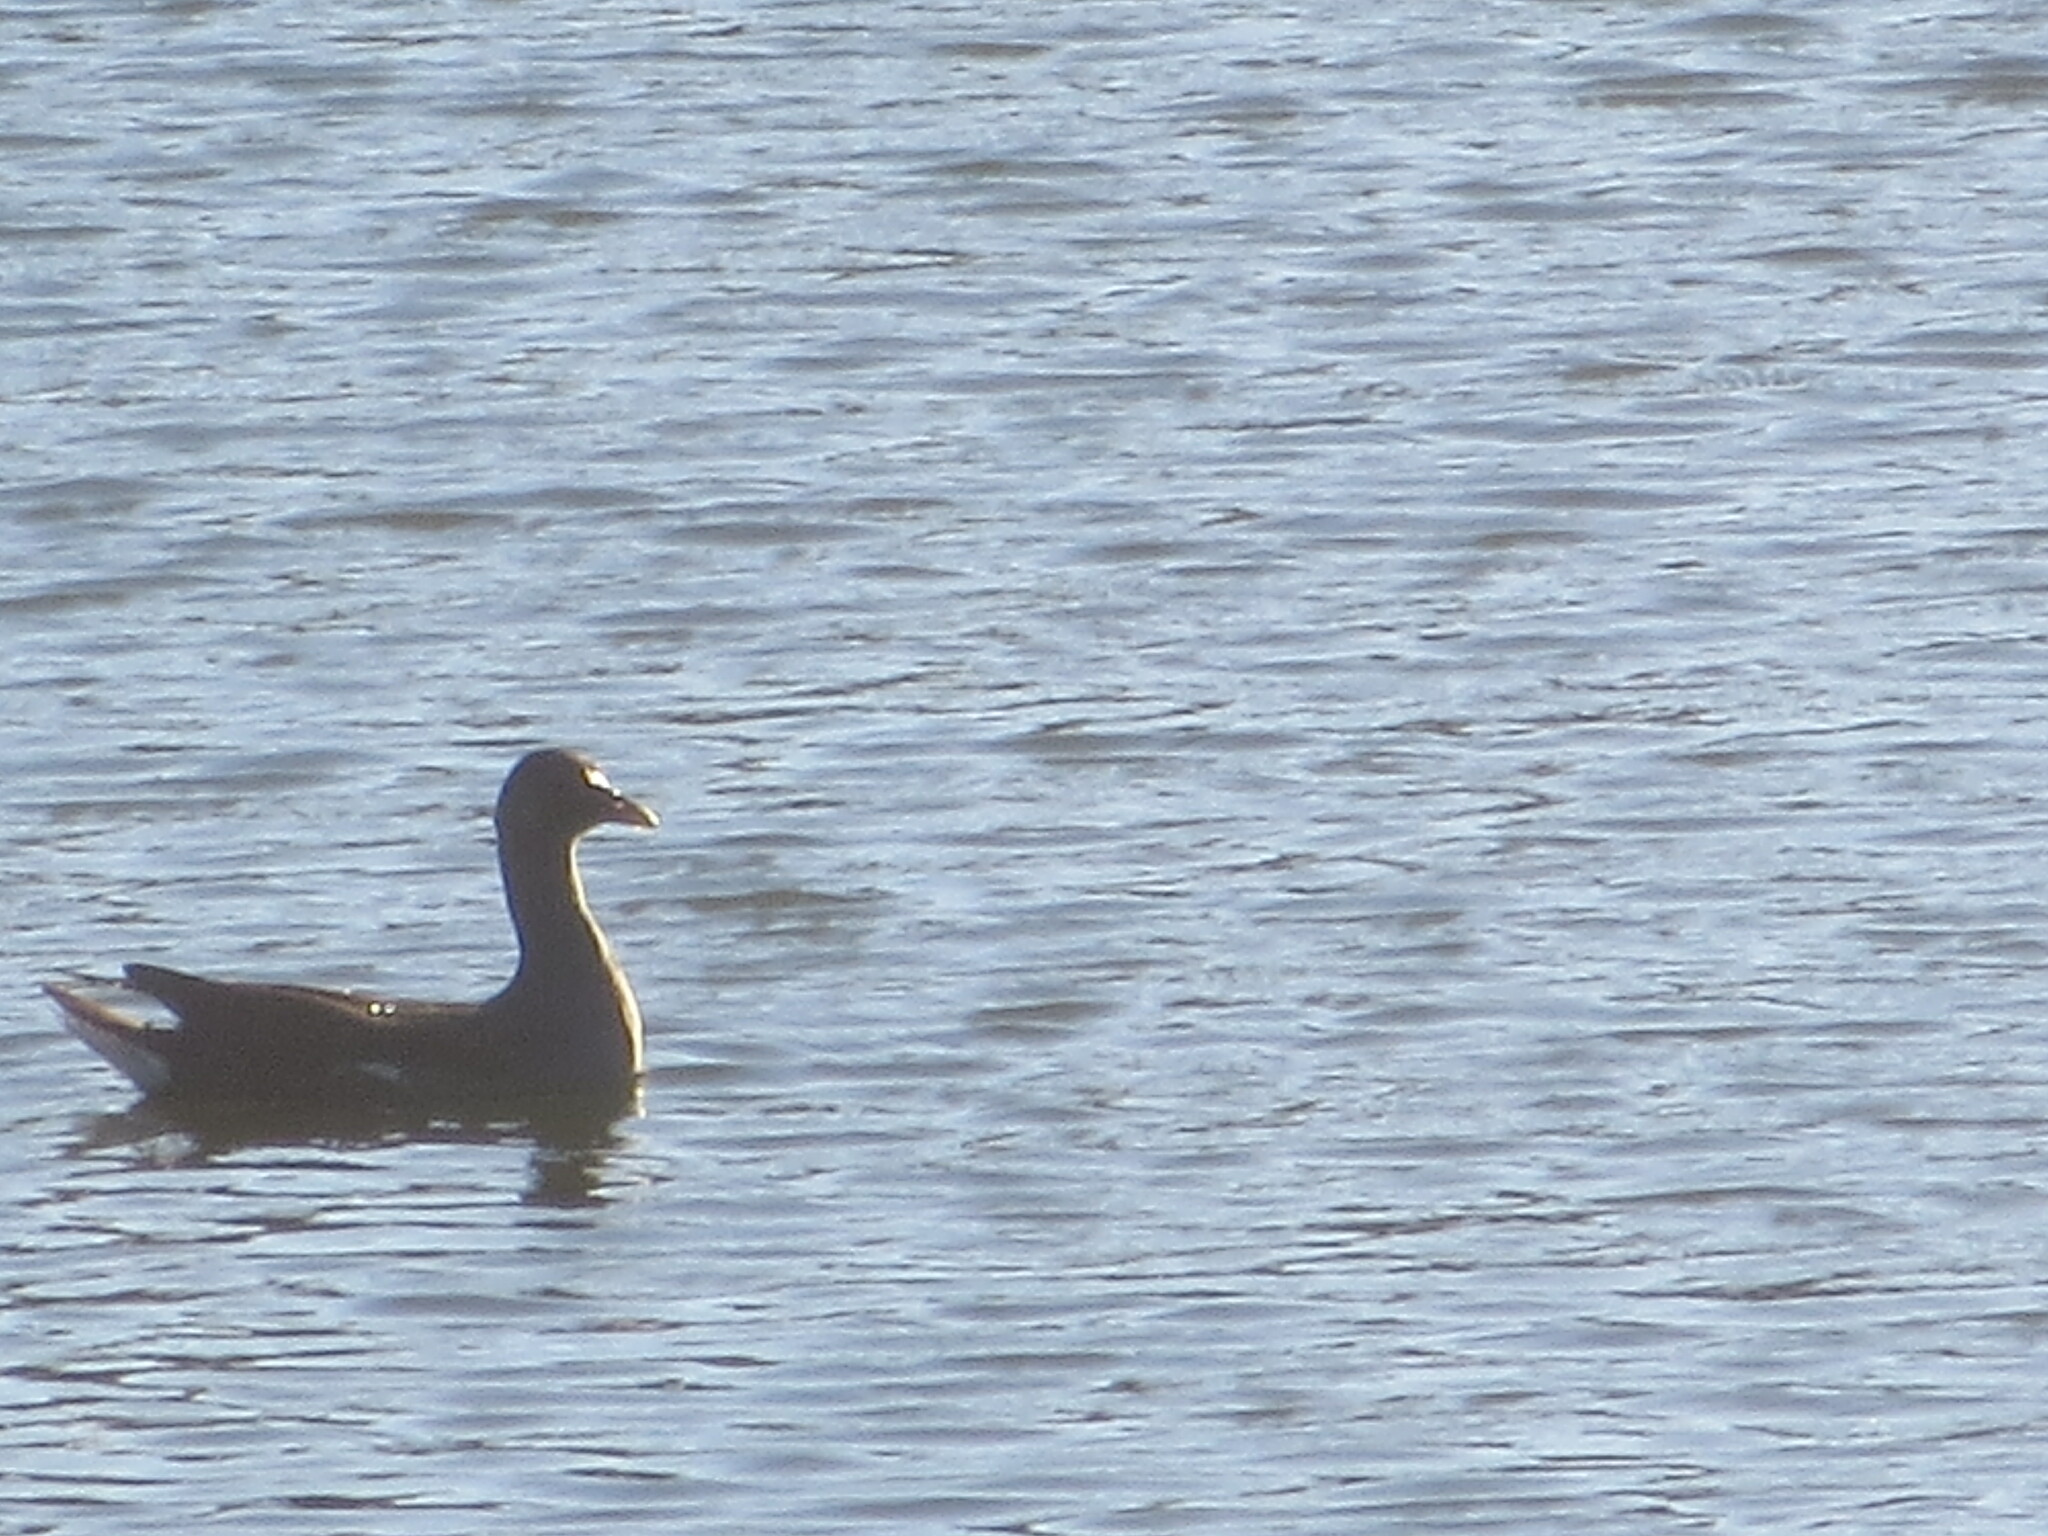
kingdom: Animalia
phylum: Chordata
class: Aves
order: Gruiformes
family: Rallidae
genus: Gallinula
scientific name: Gallinula chloropus
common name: Common moorhen
